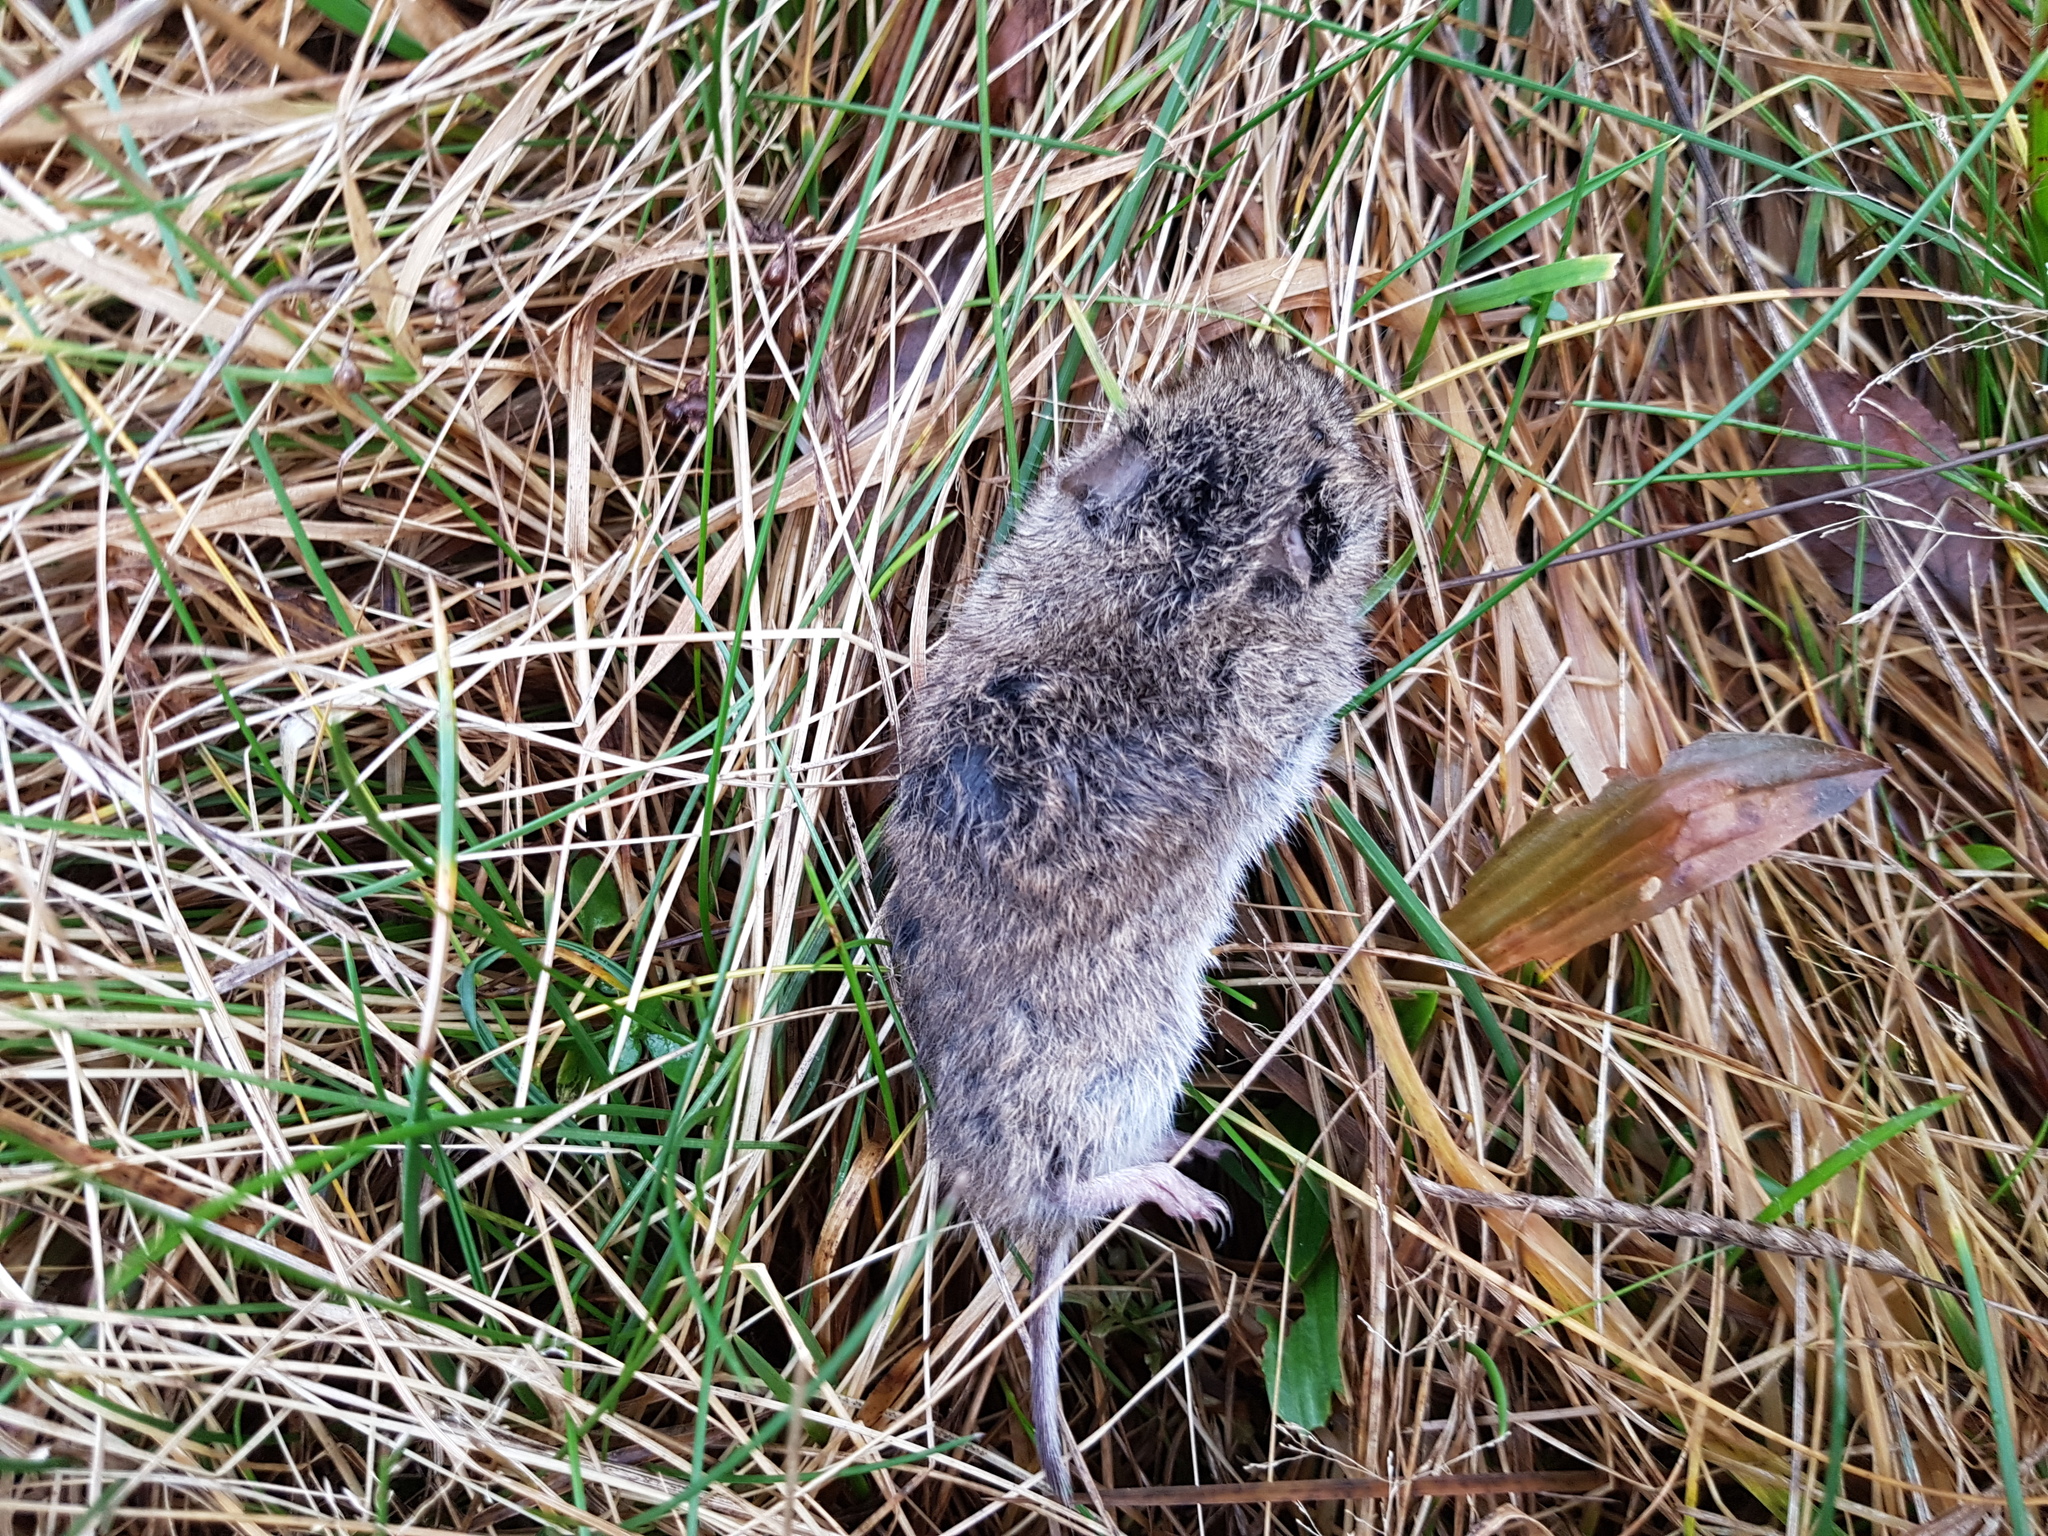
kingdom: Animalia
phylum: Chordata
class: Mammalia
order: Rodentia
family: Cricetidae
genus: Microtus
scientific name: Microtus arvalis
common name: Common vole
